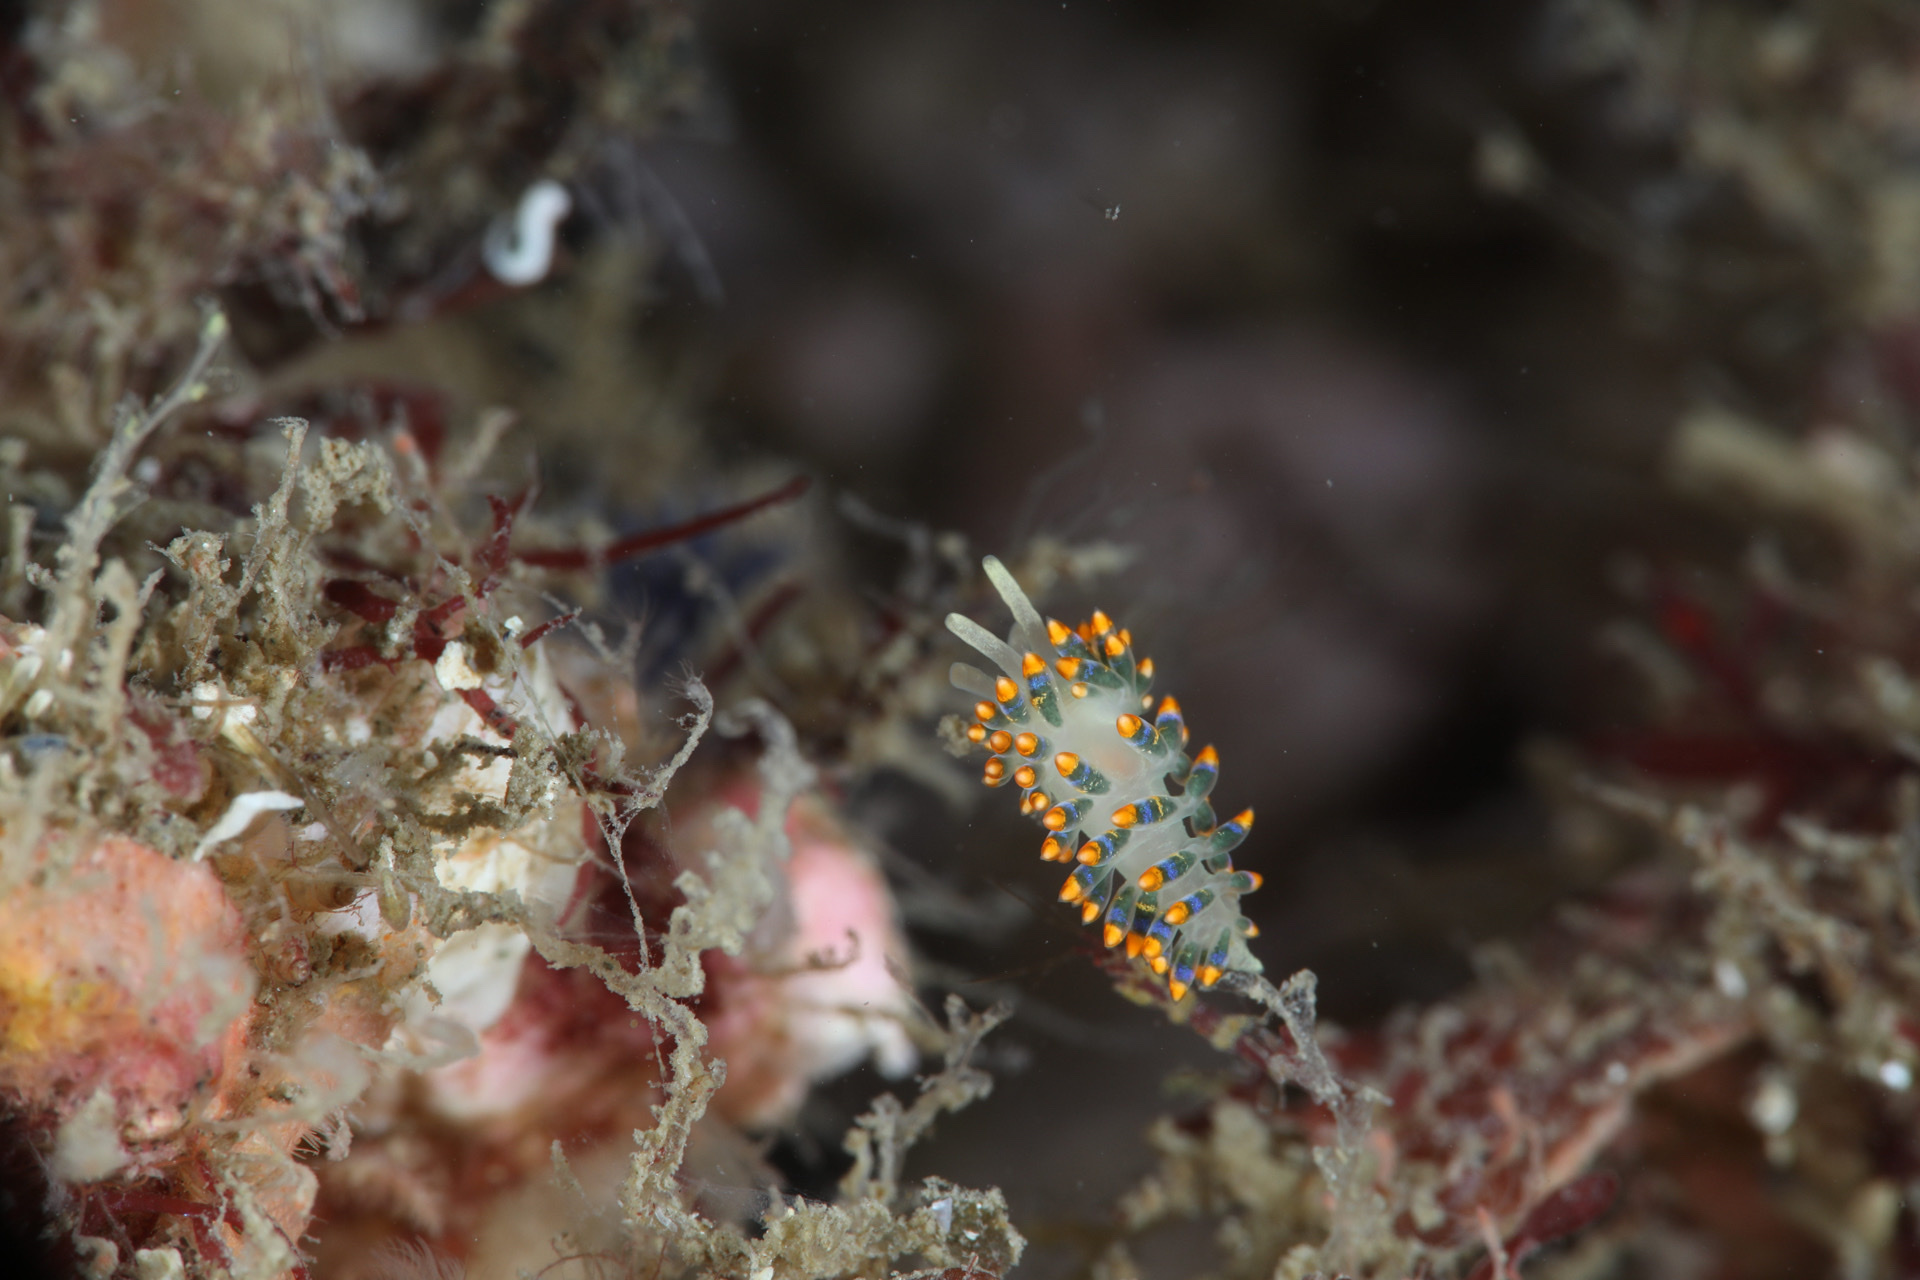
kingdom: Animalia
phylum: Mollusca
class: Gastropoda
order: Nudibranchia
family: Trinchesiidae
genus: Trinchesia
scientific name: Trinchesia cuanensis
